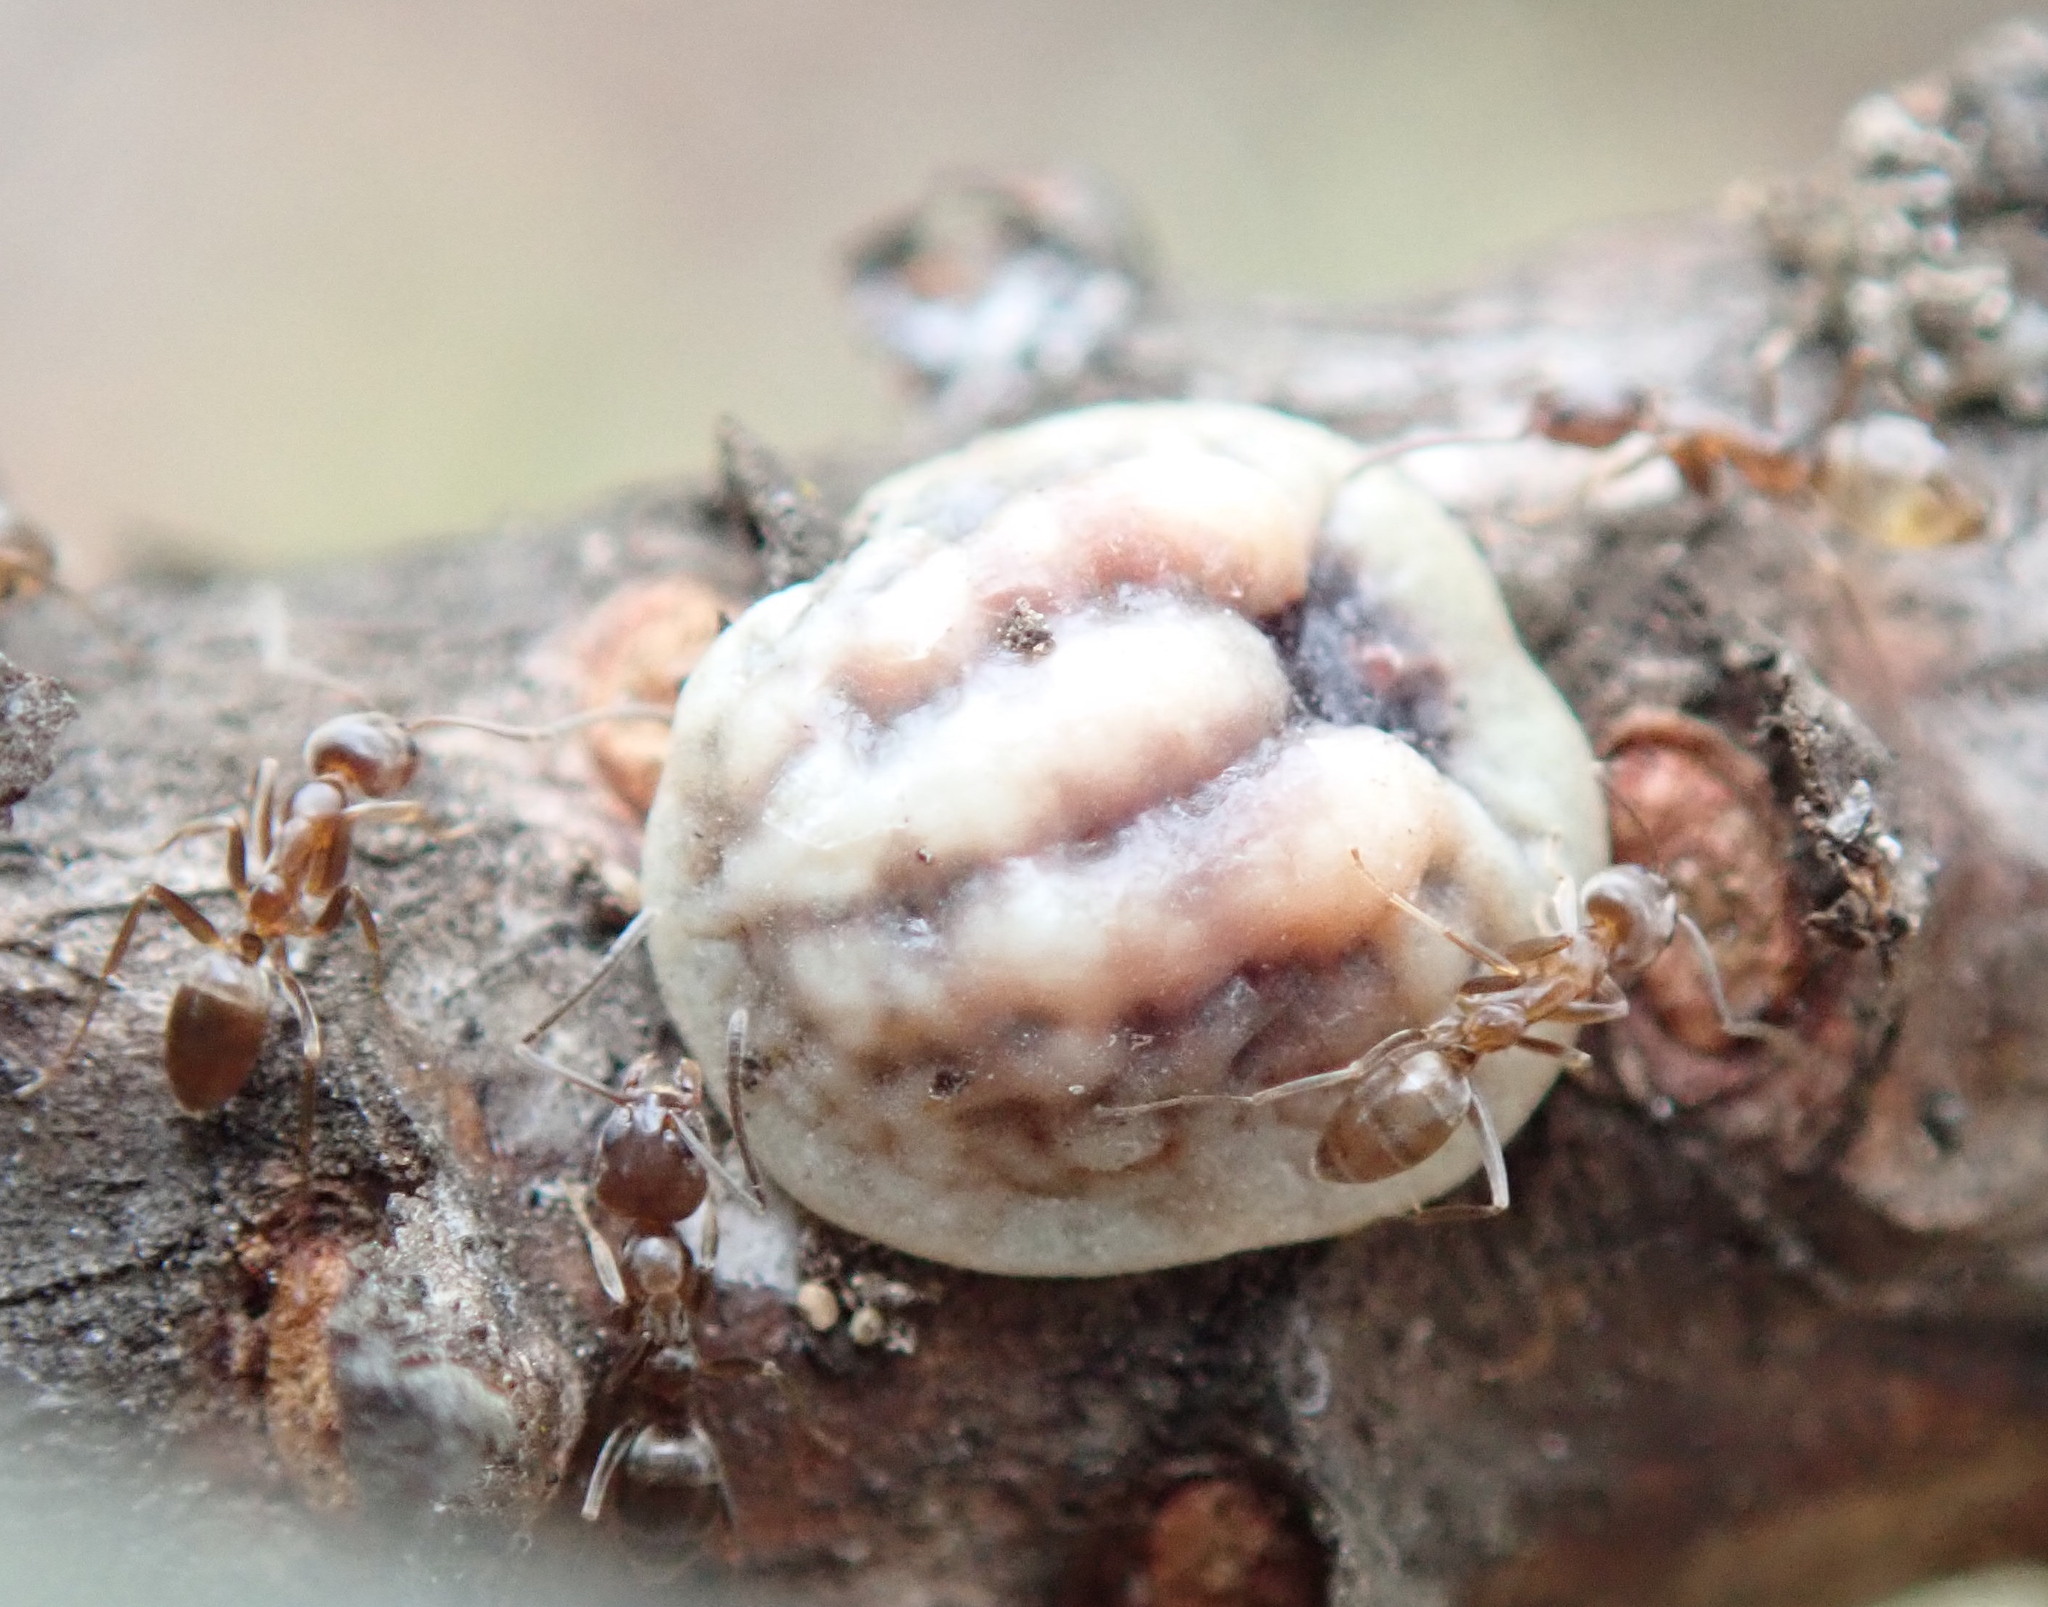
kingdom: Animalia
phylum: Arthropoda
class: Insecta
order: Hymenoptera
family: Formicidae
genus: Linepithema
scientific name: Linepithema humile
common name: Argentine ant
